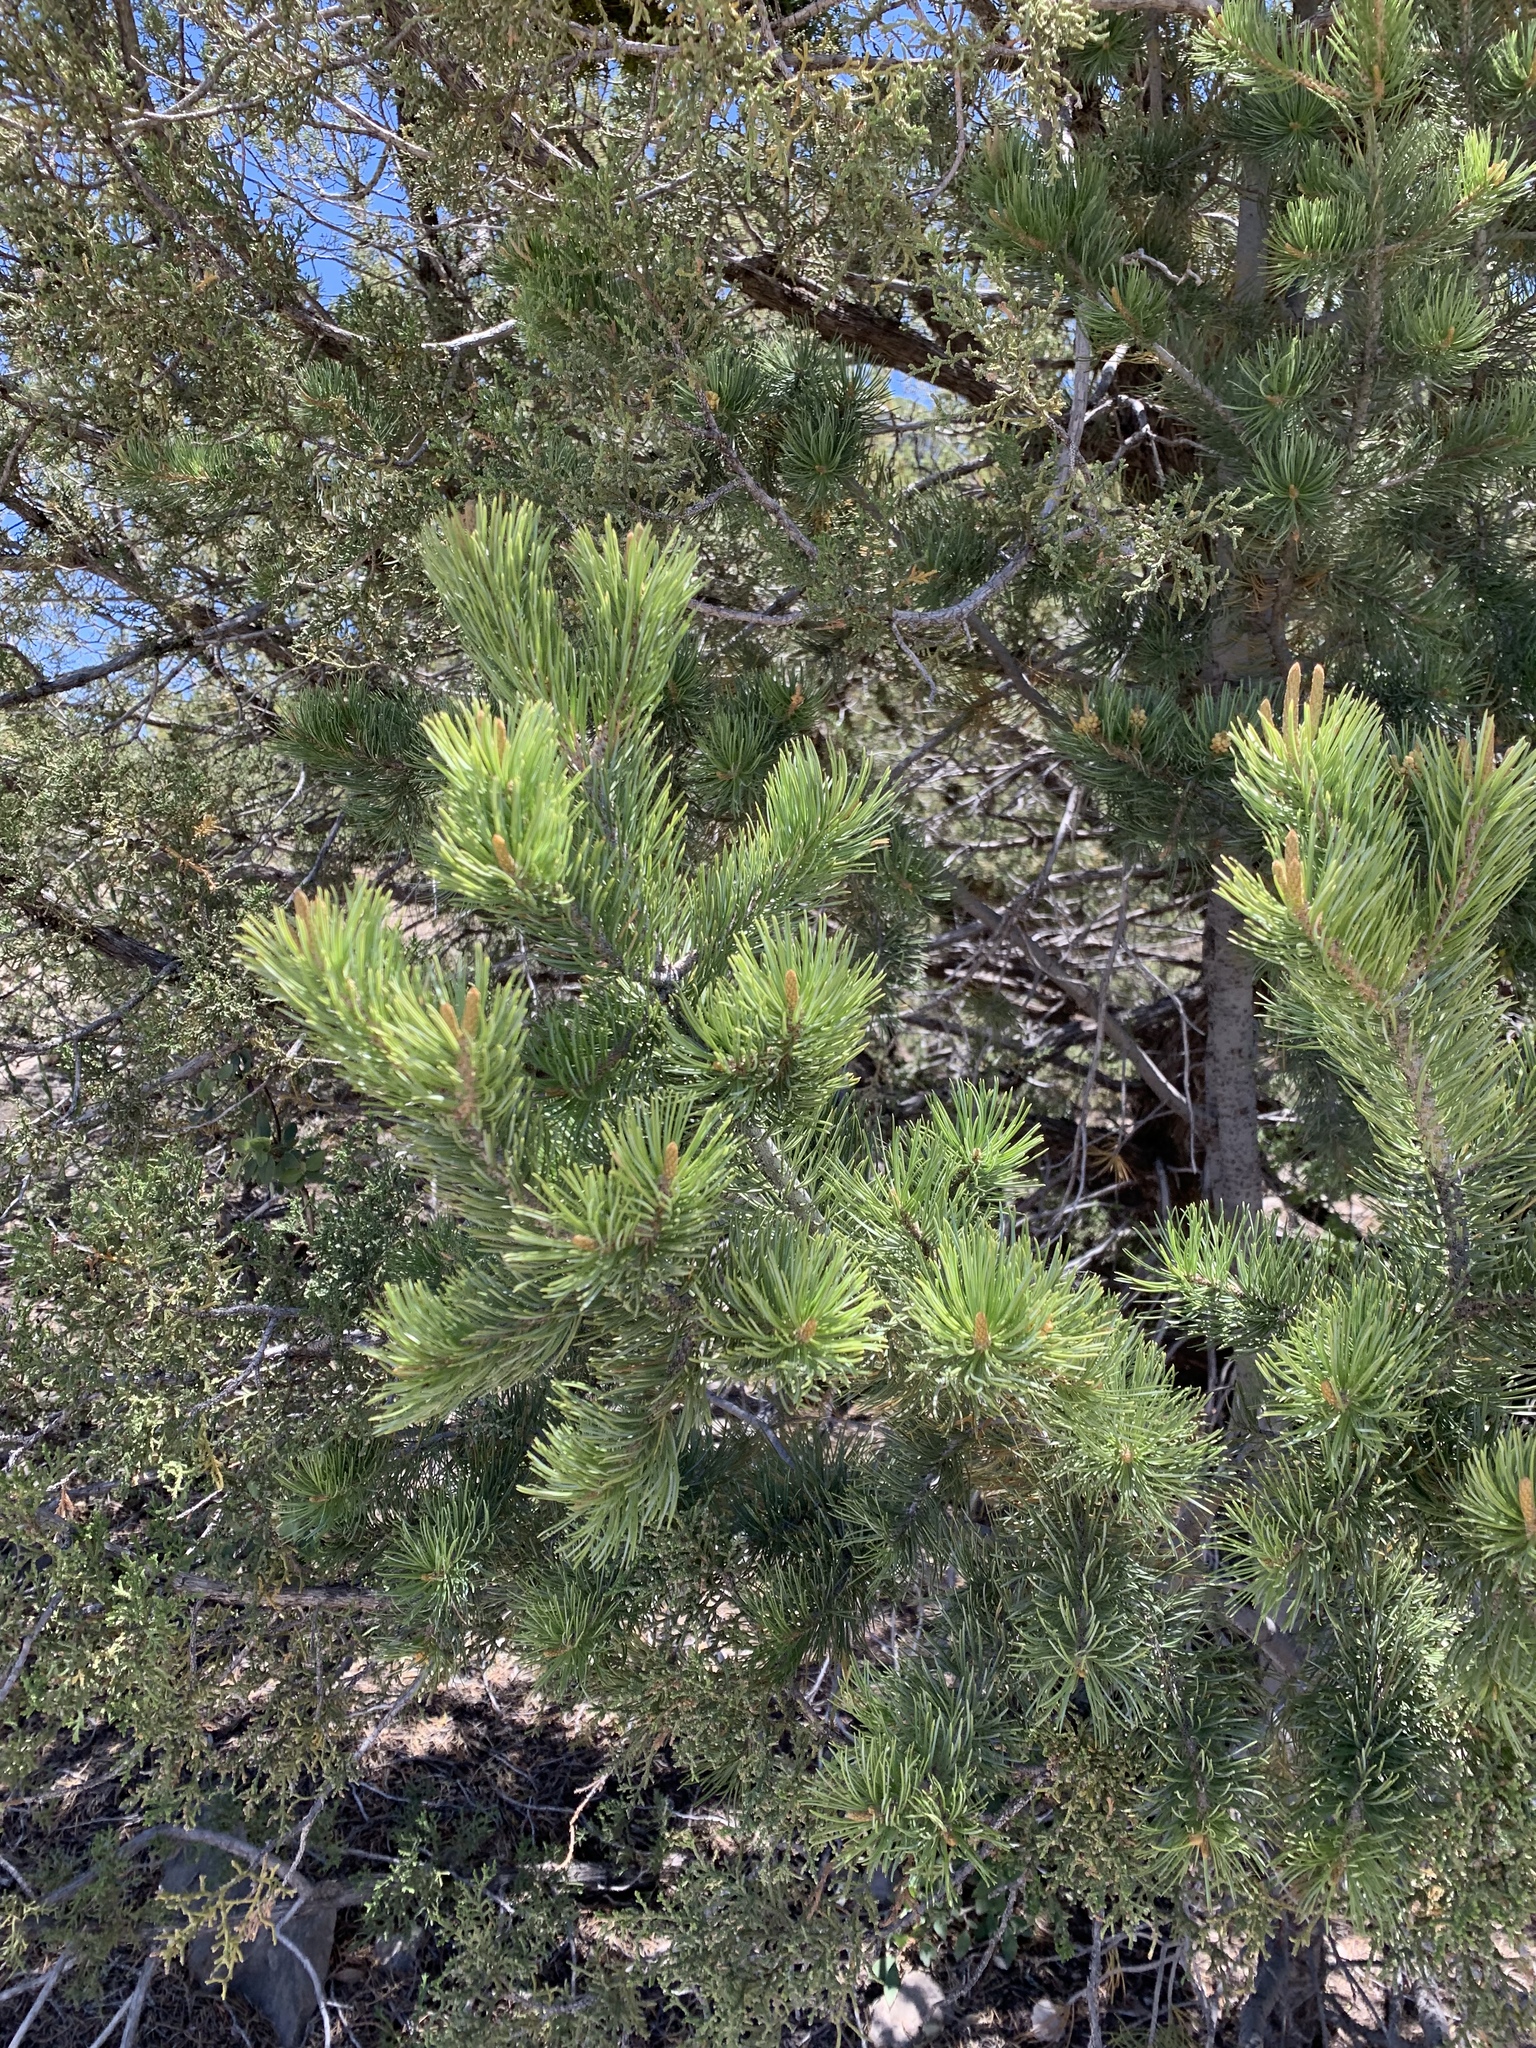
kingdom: Plantae
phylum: Tracheophyta
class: Pinopsida
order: Pinales
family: Pinaceae
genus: Pinus
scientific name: Pinus edulis
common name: Colorado pinyon
